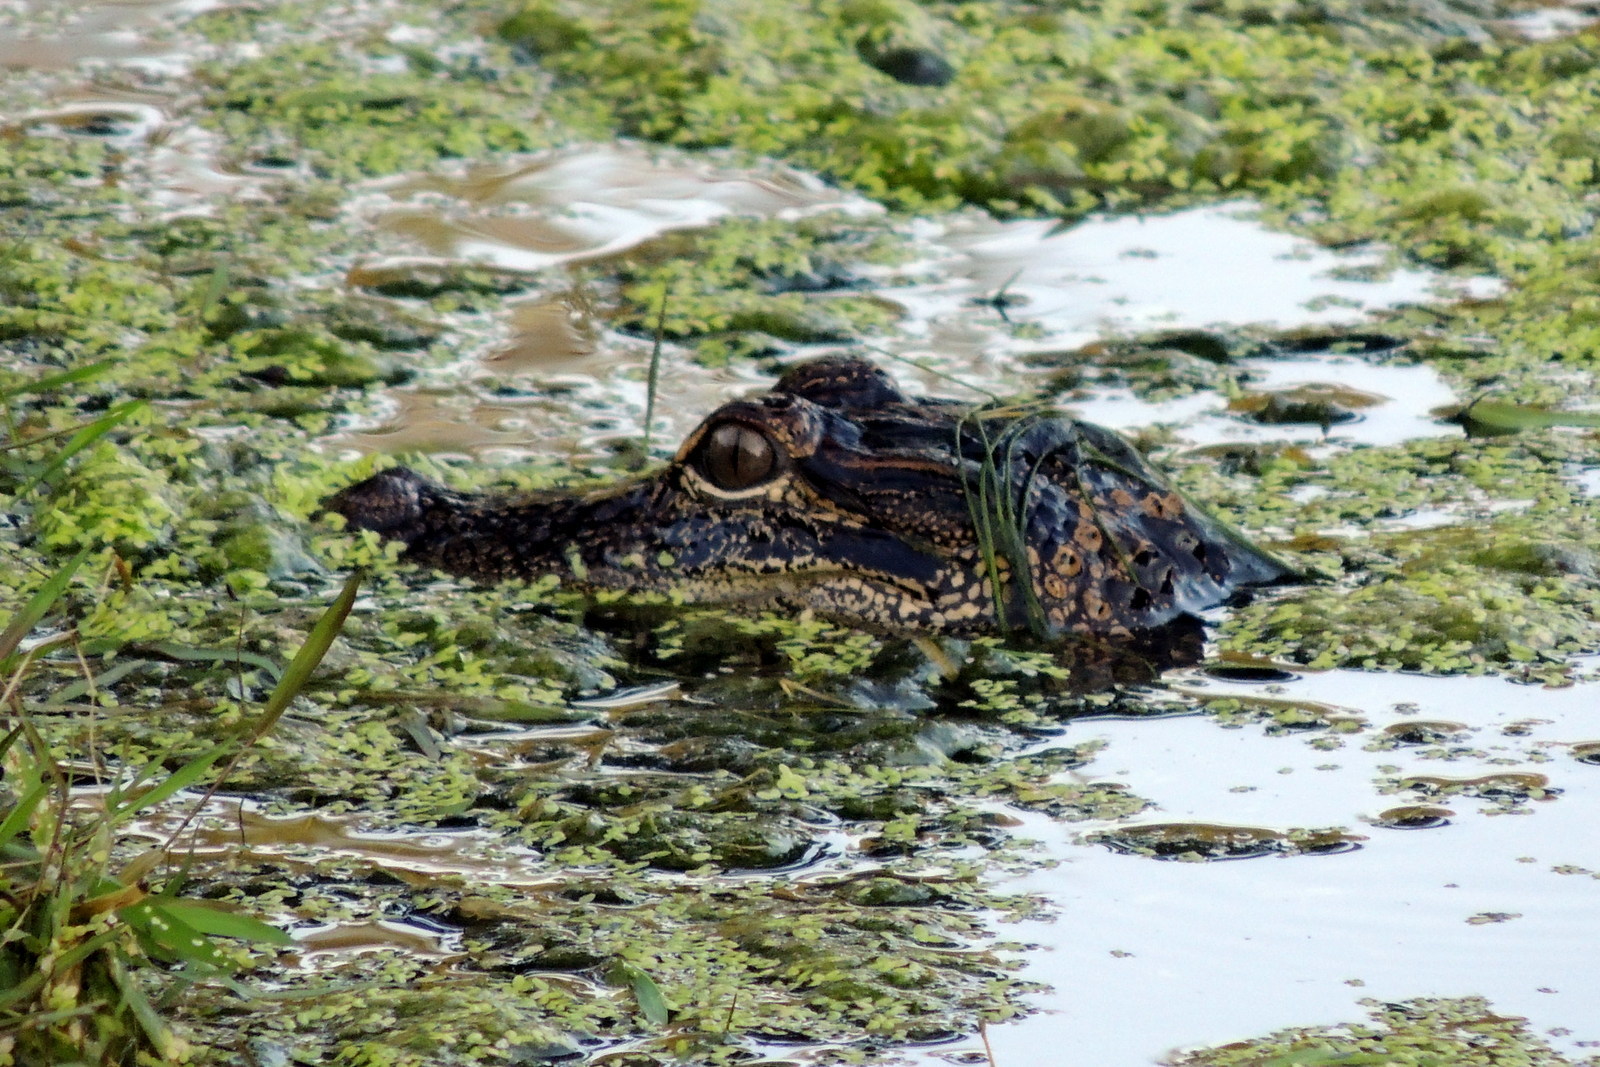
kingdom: Animalia
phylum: Chordata
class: Crocodylia
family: Alligatoridae
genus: Alligator
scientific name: Alligator mississippiensis
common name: American alligator
